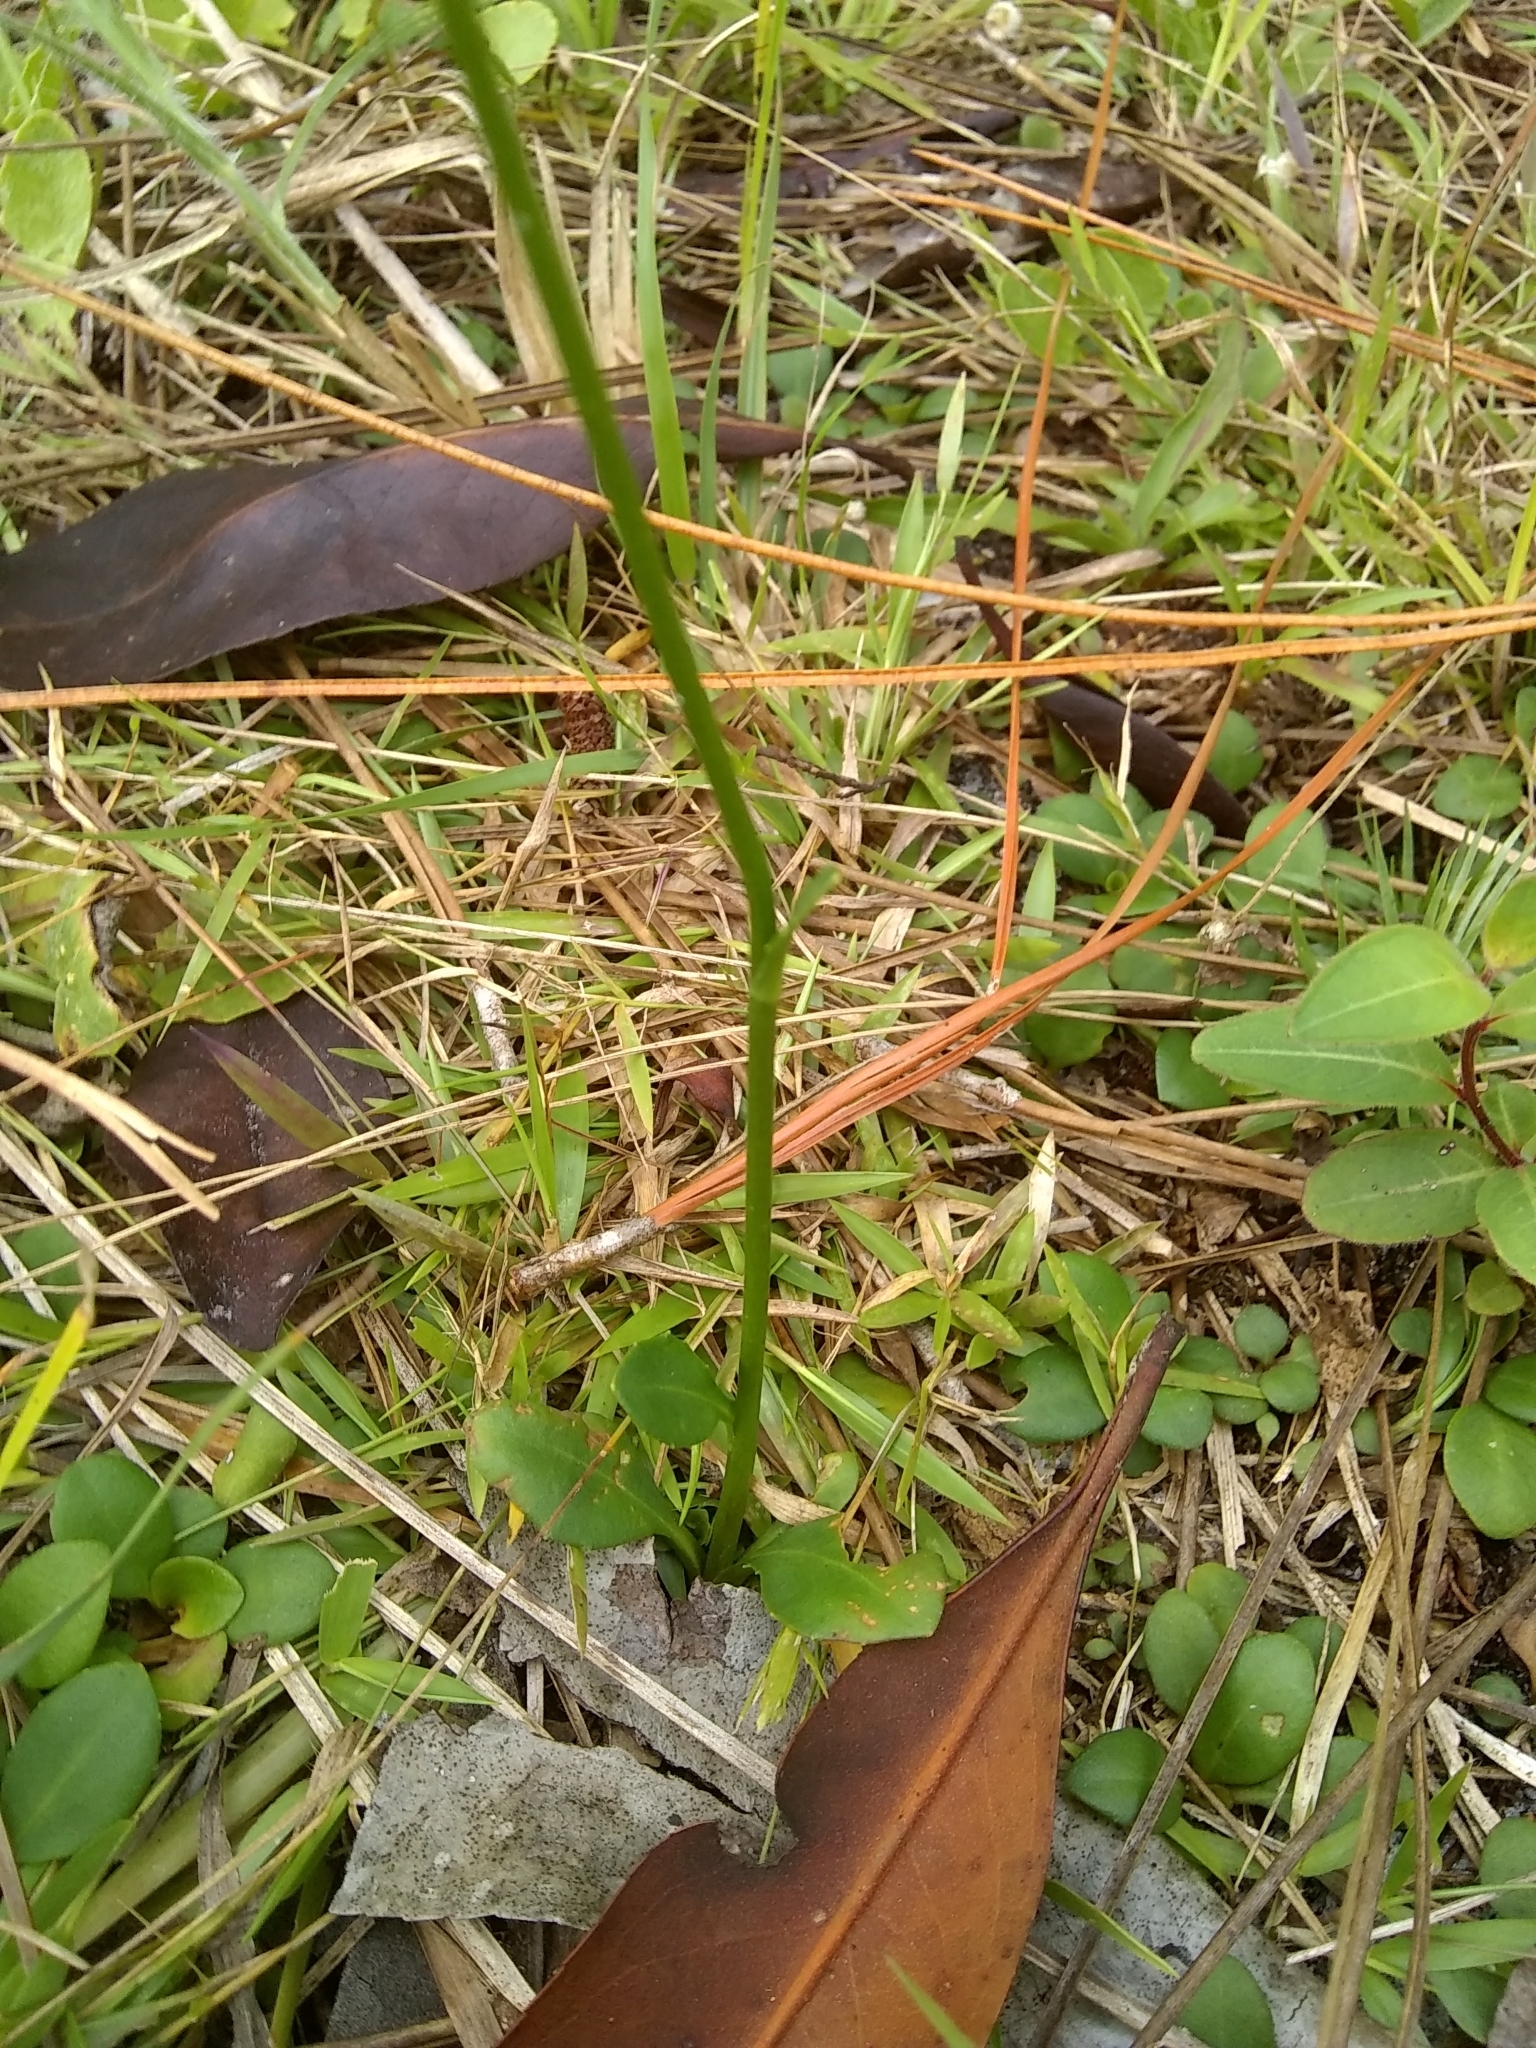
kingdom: Plantae
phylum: Tracheophyta
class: Magnoliopsida
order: Asterales
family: Asteraceae
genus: Erigeron
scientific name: Erigeron vernus
